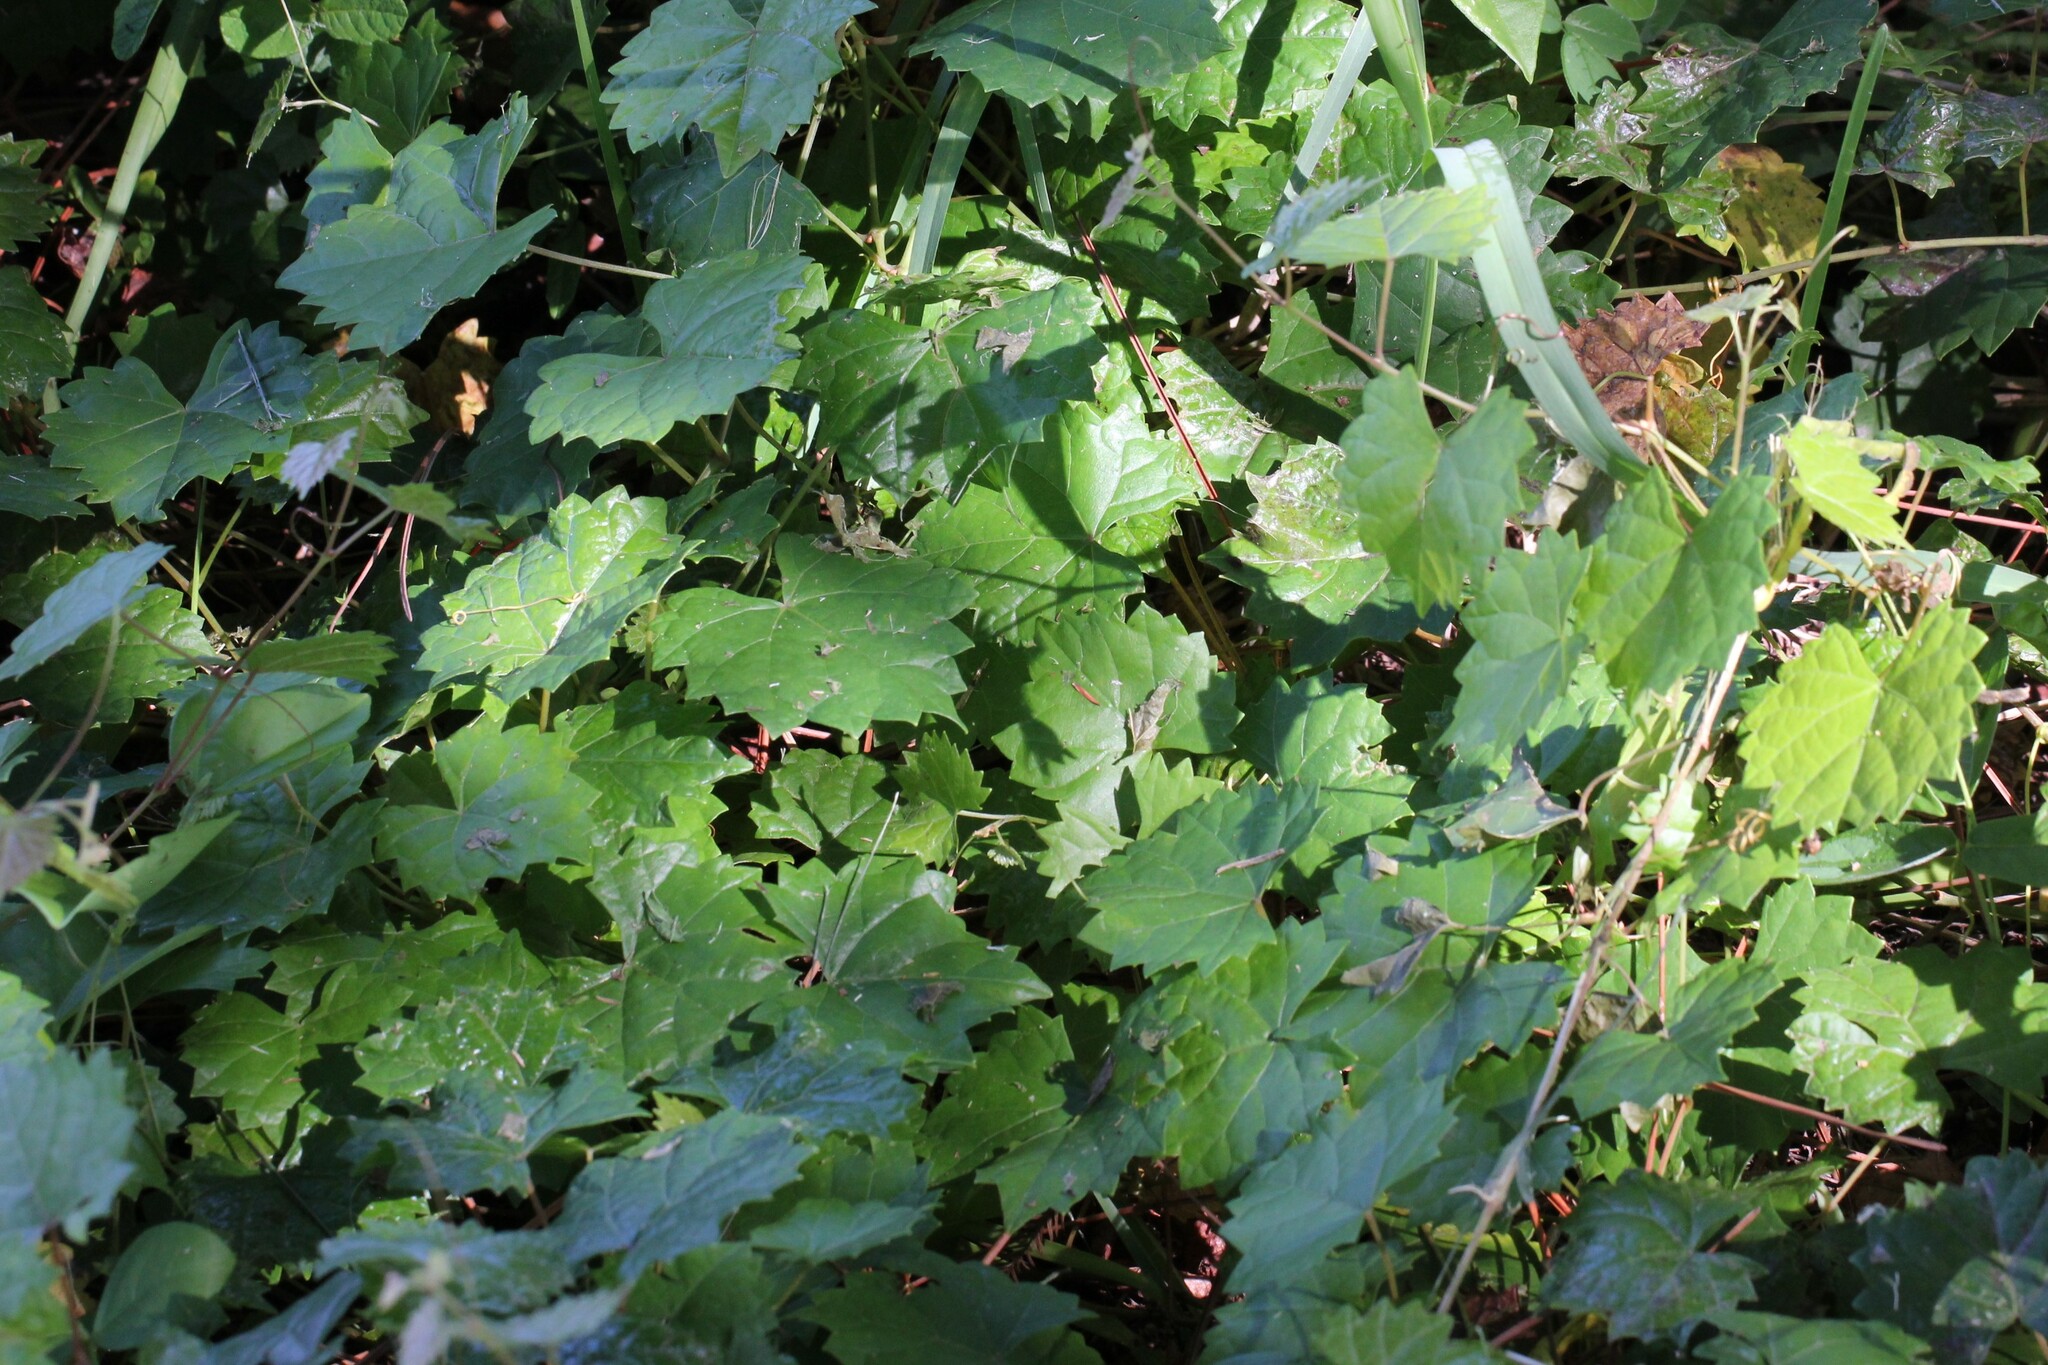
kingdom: Plantae
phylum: Tracheophyta
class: Magnoliopsida
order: Vitales
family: Vitaceae
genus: Vitis
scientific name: Vitis rotundifolia
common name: Muscadine grape
